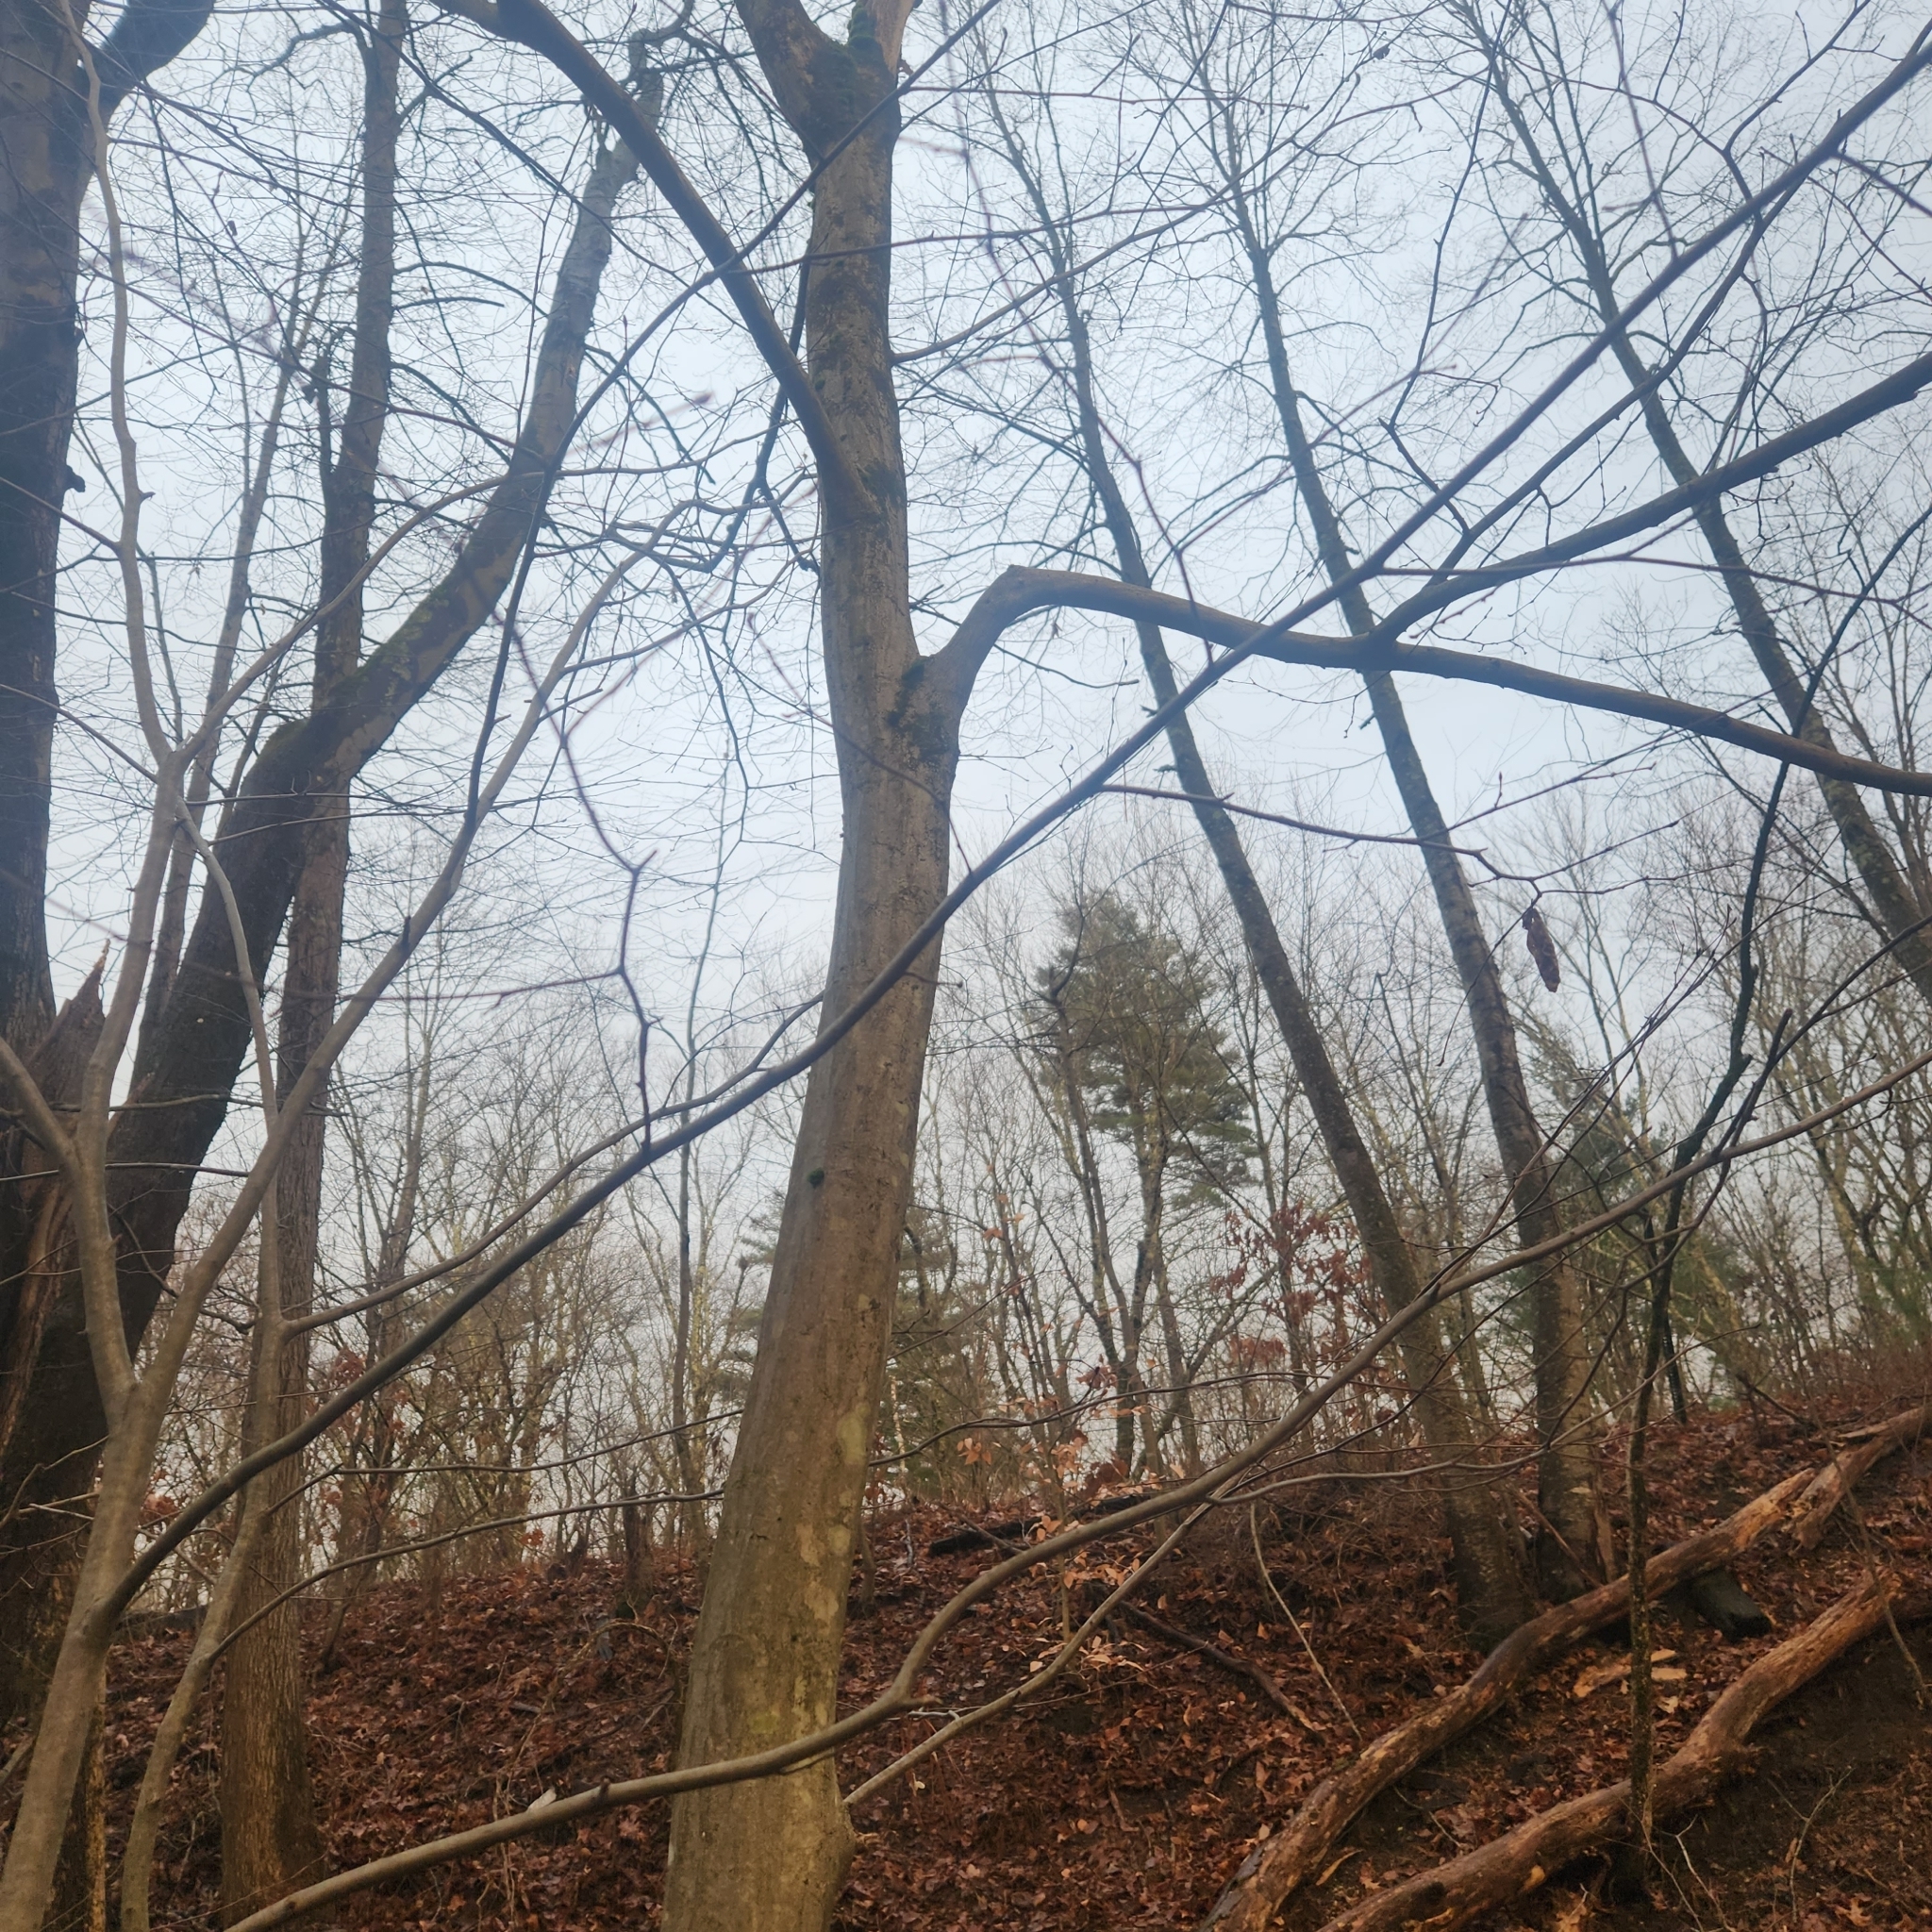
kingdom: Plantae
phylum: Tracheophyta
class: Magnoliopsida
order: Fagales
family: Betulaceae
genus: Carpinus
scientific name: Carpinus caroliniana
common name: American hornbeam
